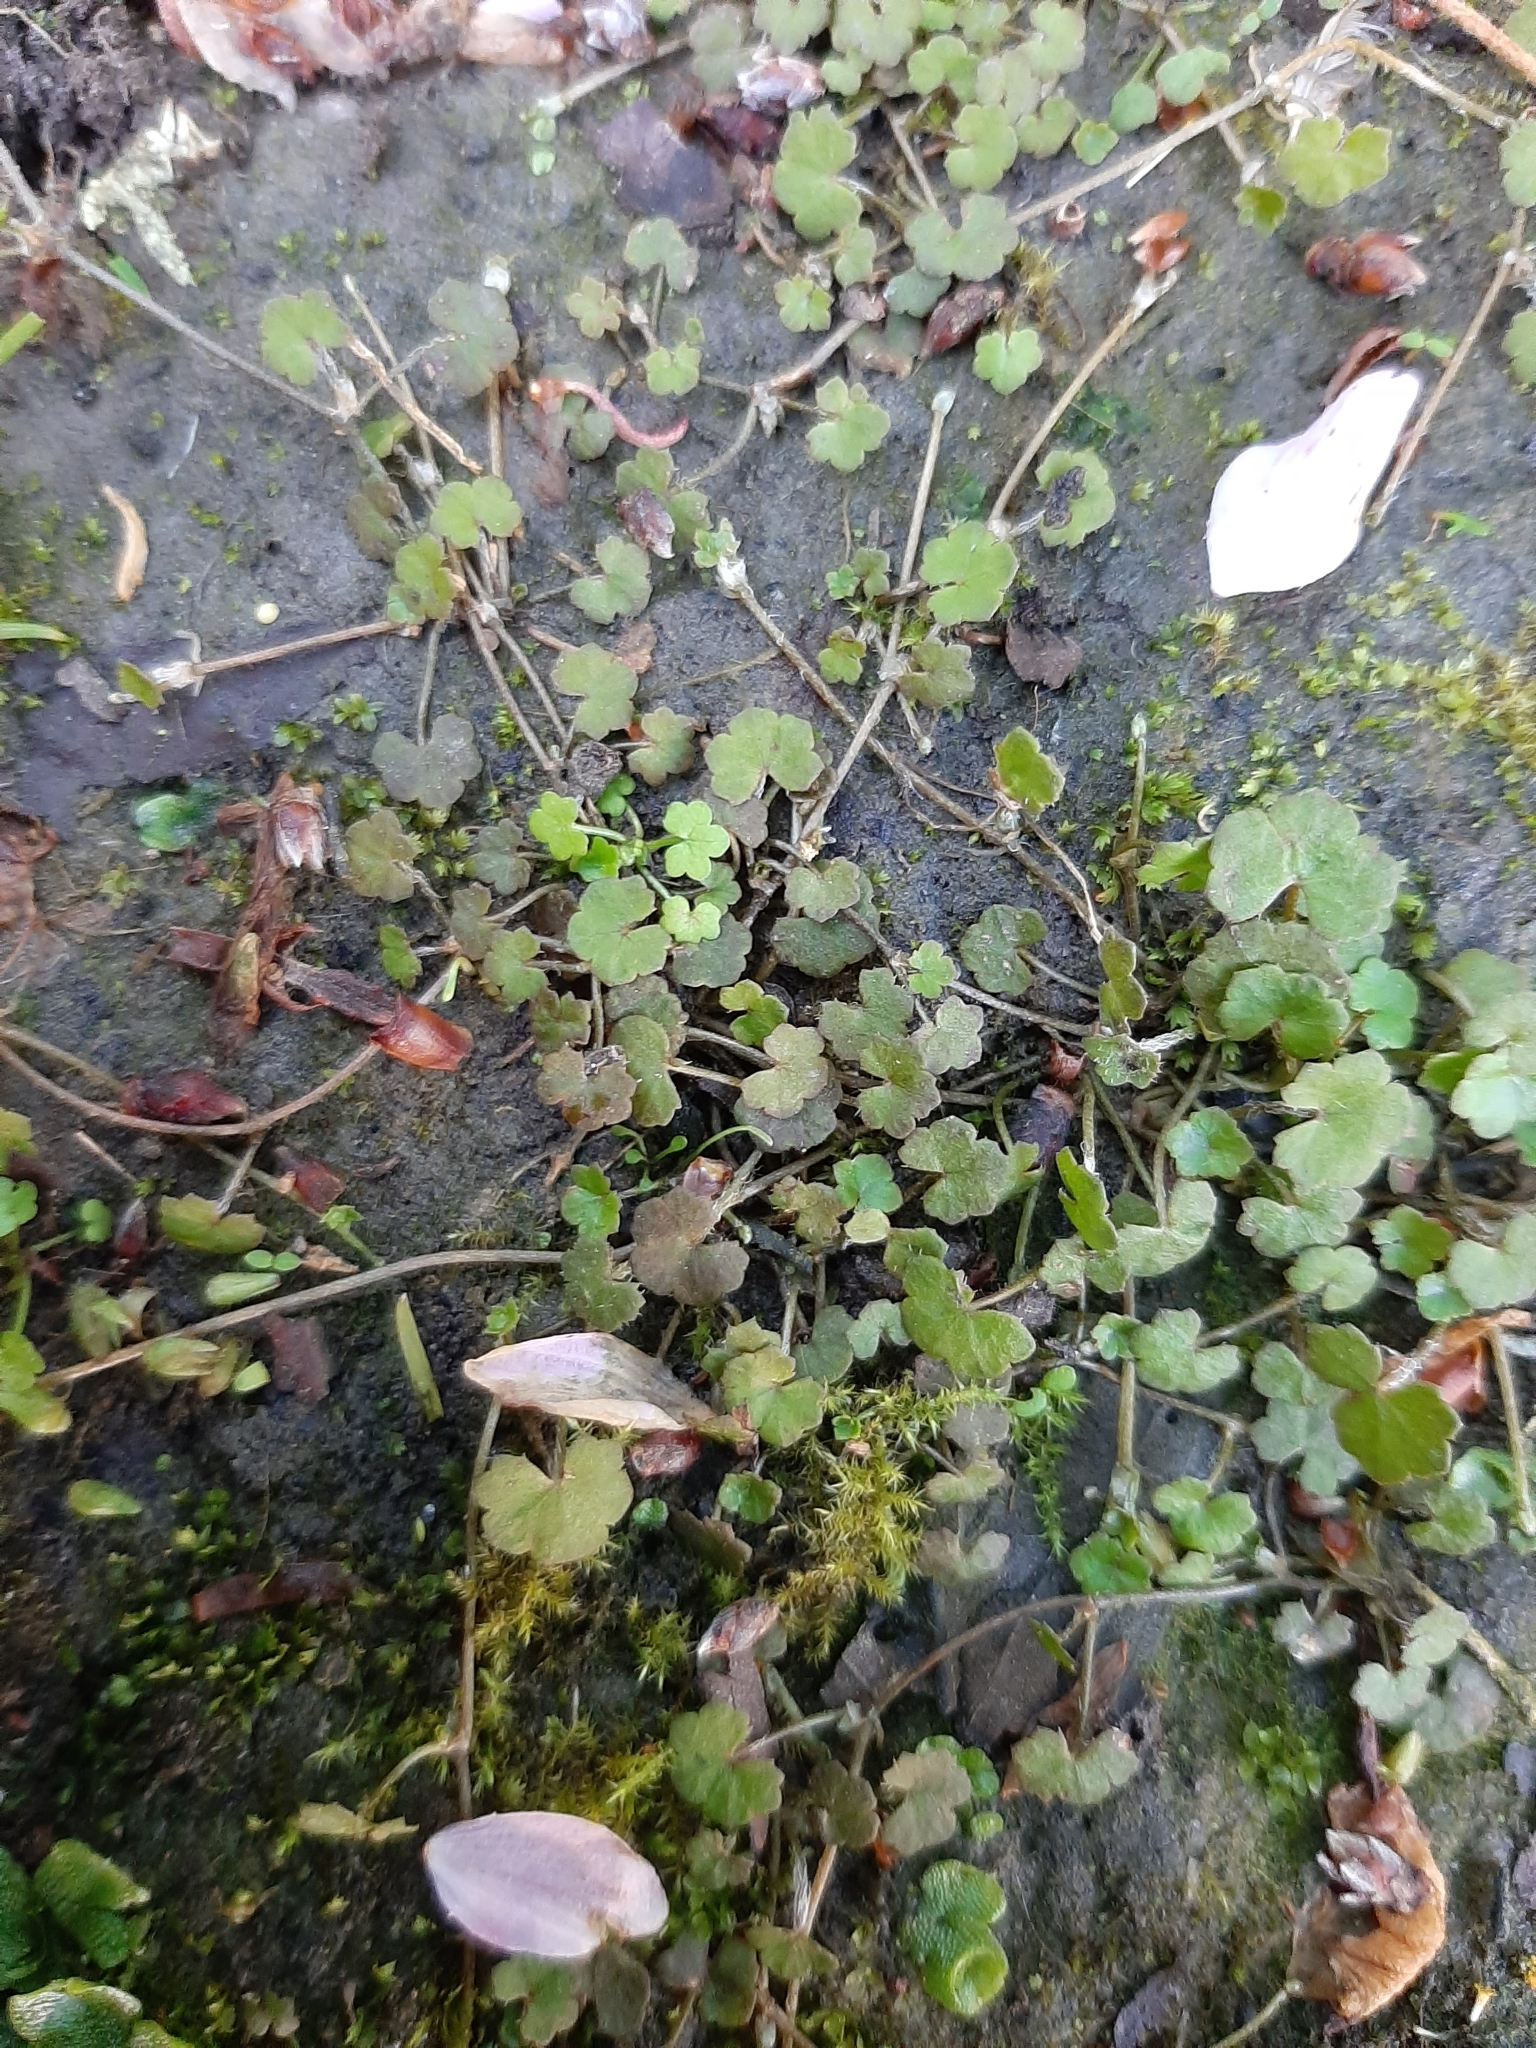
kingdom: Plantae
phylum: Tracheophyta
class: Magnoliopsida
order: Apiales
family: Araliaceae
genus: Hydrocotyle
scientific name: Hydrocotyle novae-zeelandiae
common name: New zealand pennywort
